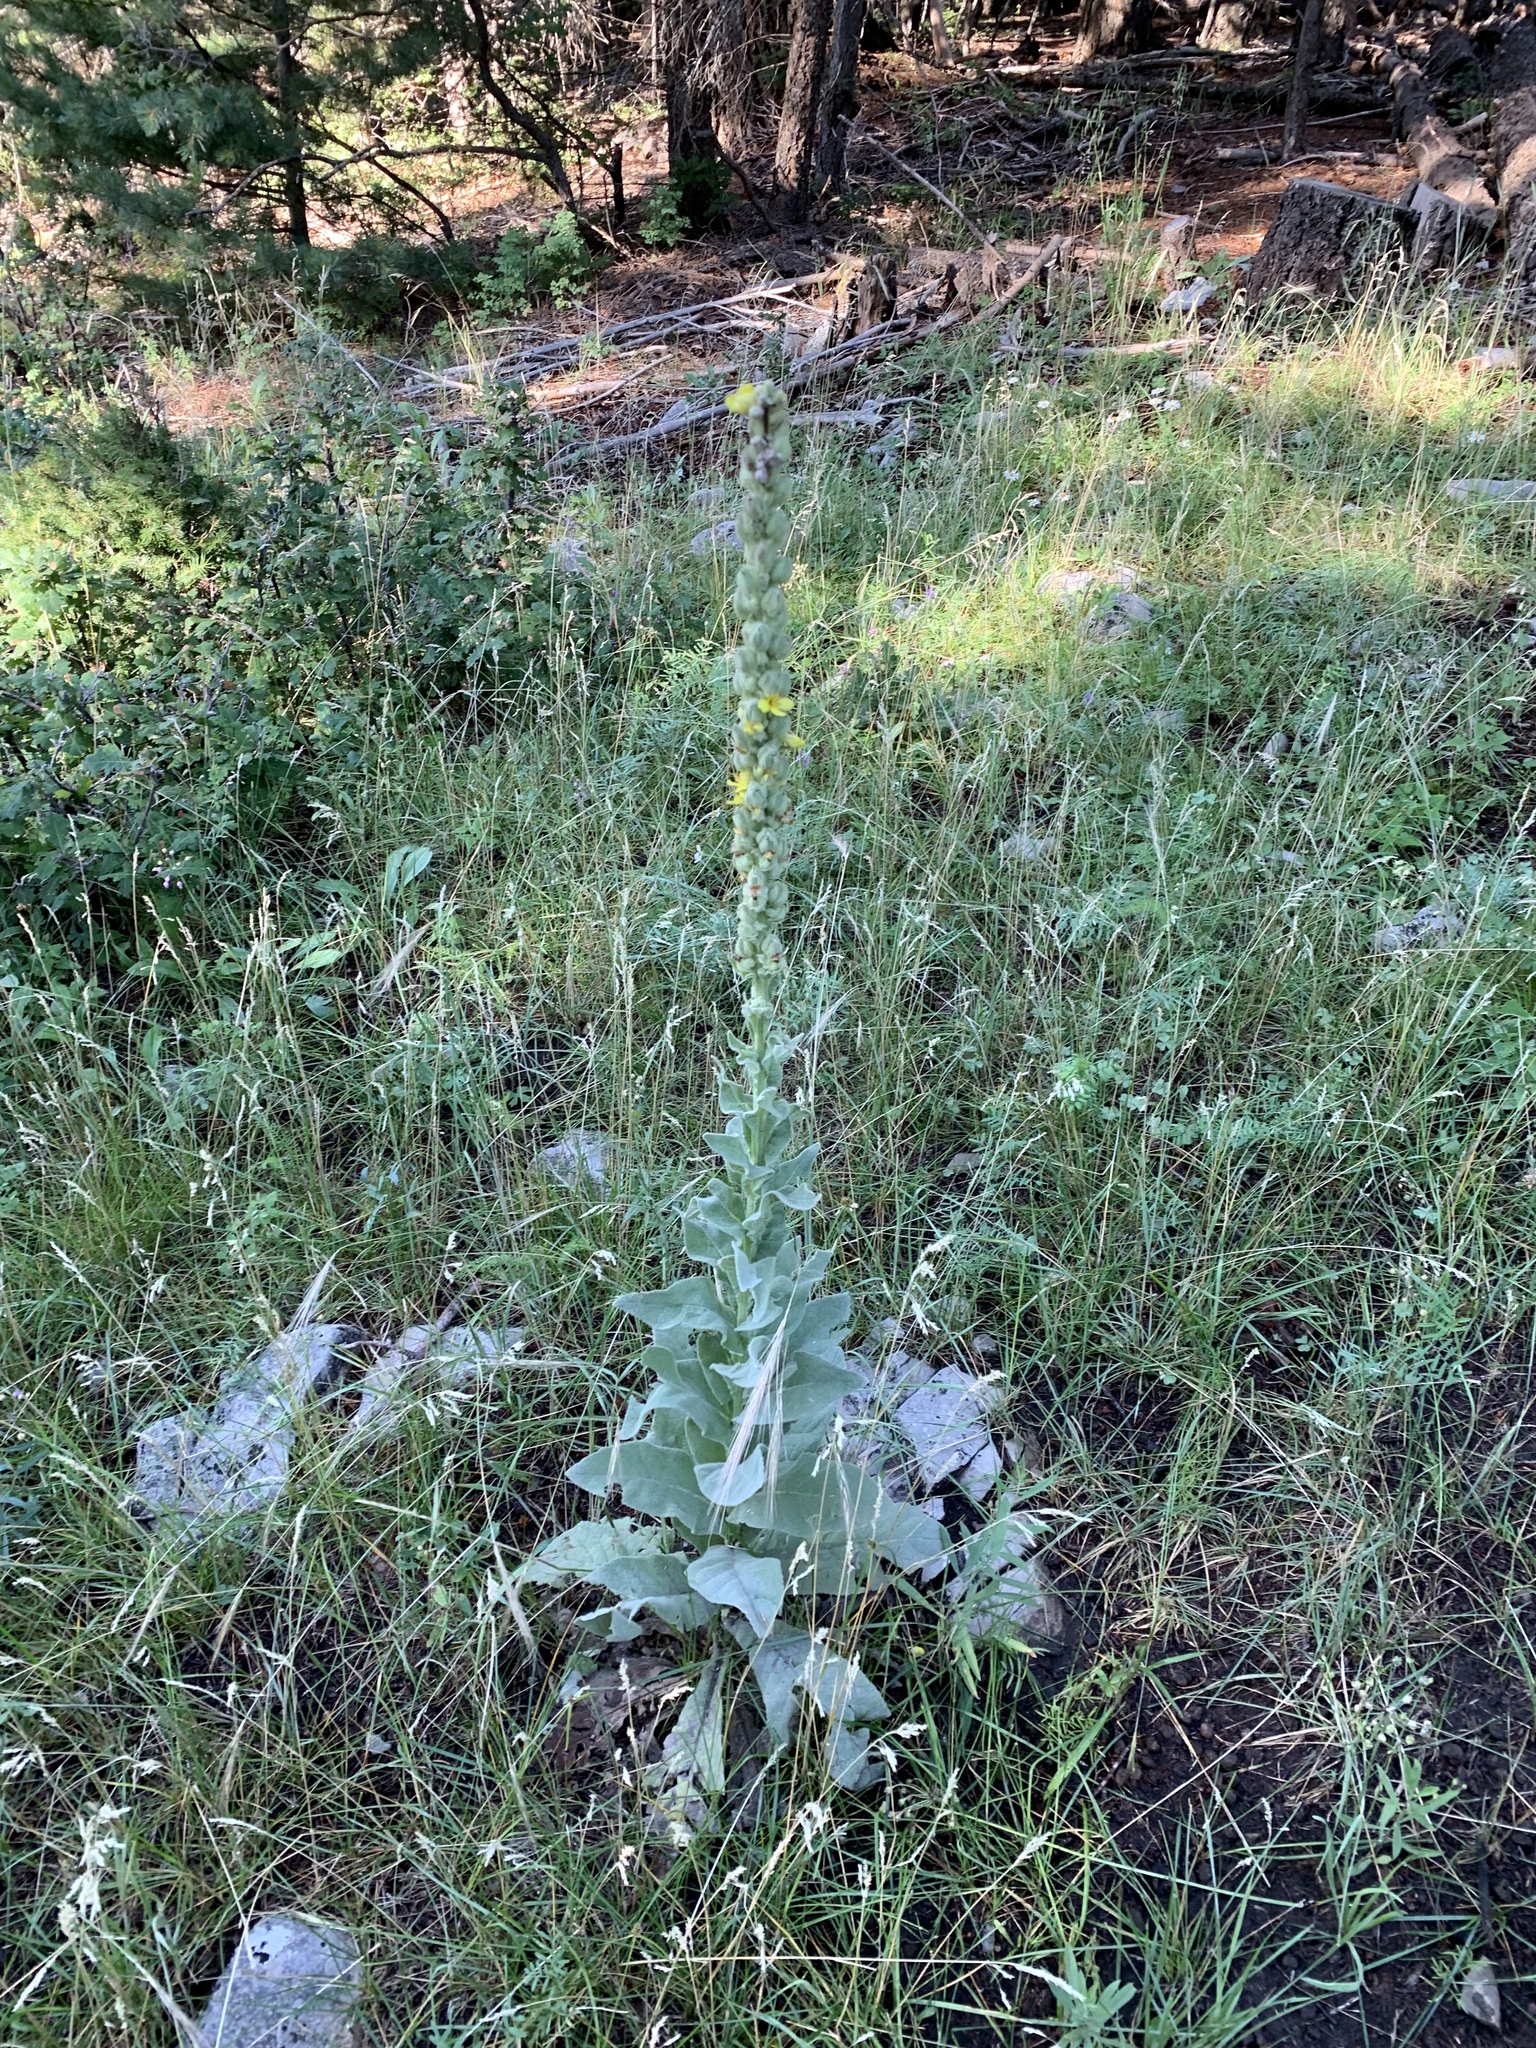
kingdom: Plantae
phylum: Tracheophyta
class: Magnoliopsida
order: Lamiales
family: Scrophulariaceae
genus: Verbascum
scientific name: Verbascum thapsus
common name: Common mullein
